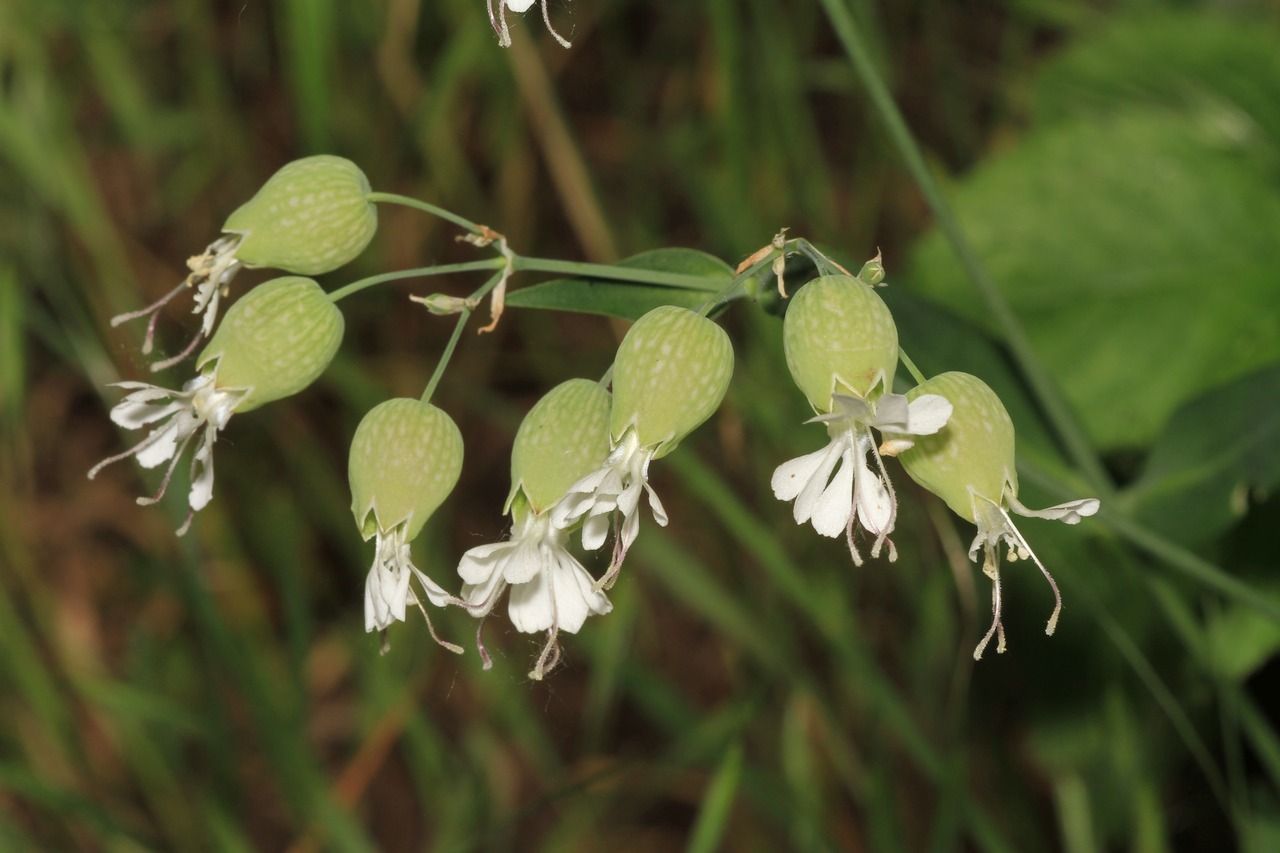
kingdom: Plantae
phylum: Tracheophyta
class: Magnoliopsida
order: Caryophyllales
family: Caryophyllaceae
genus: Silene
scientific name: Silene vulgaris
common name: Bladder campion
